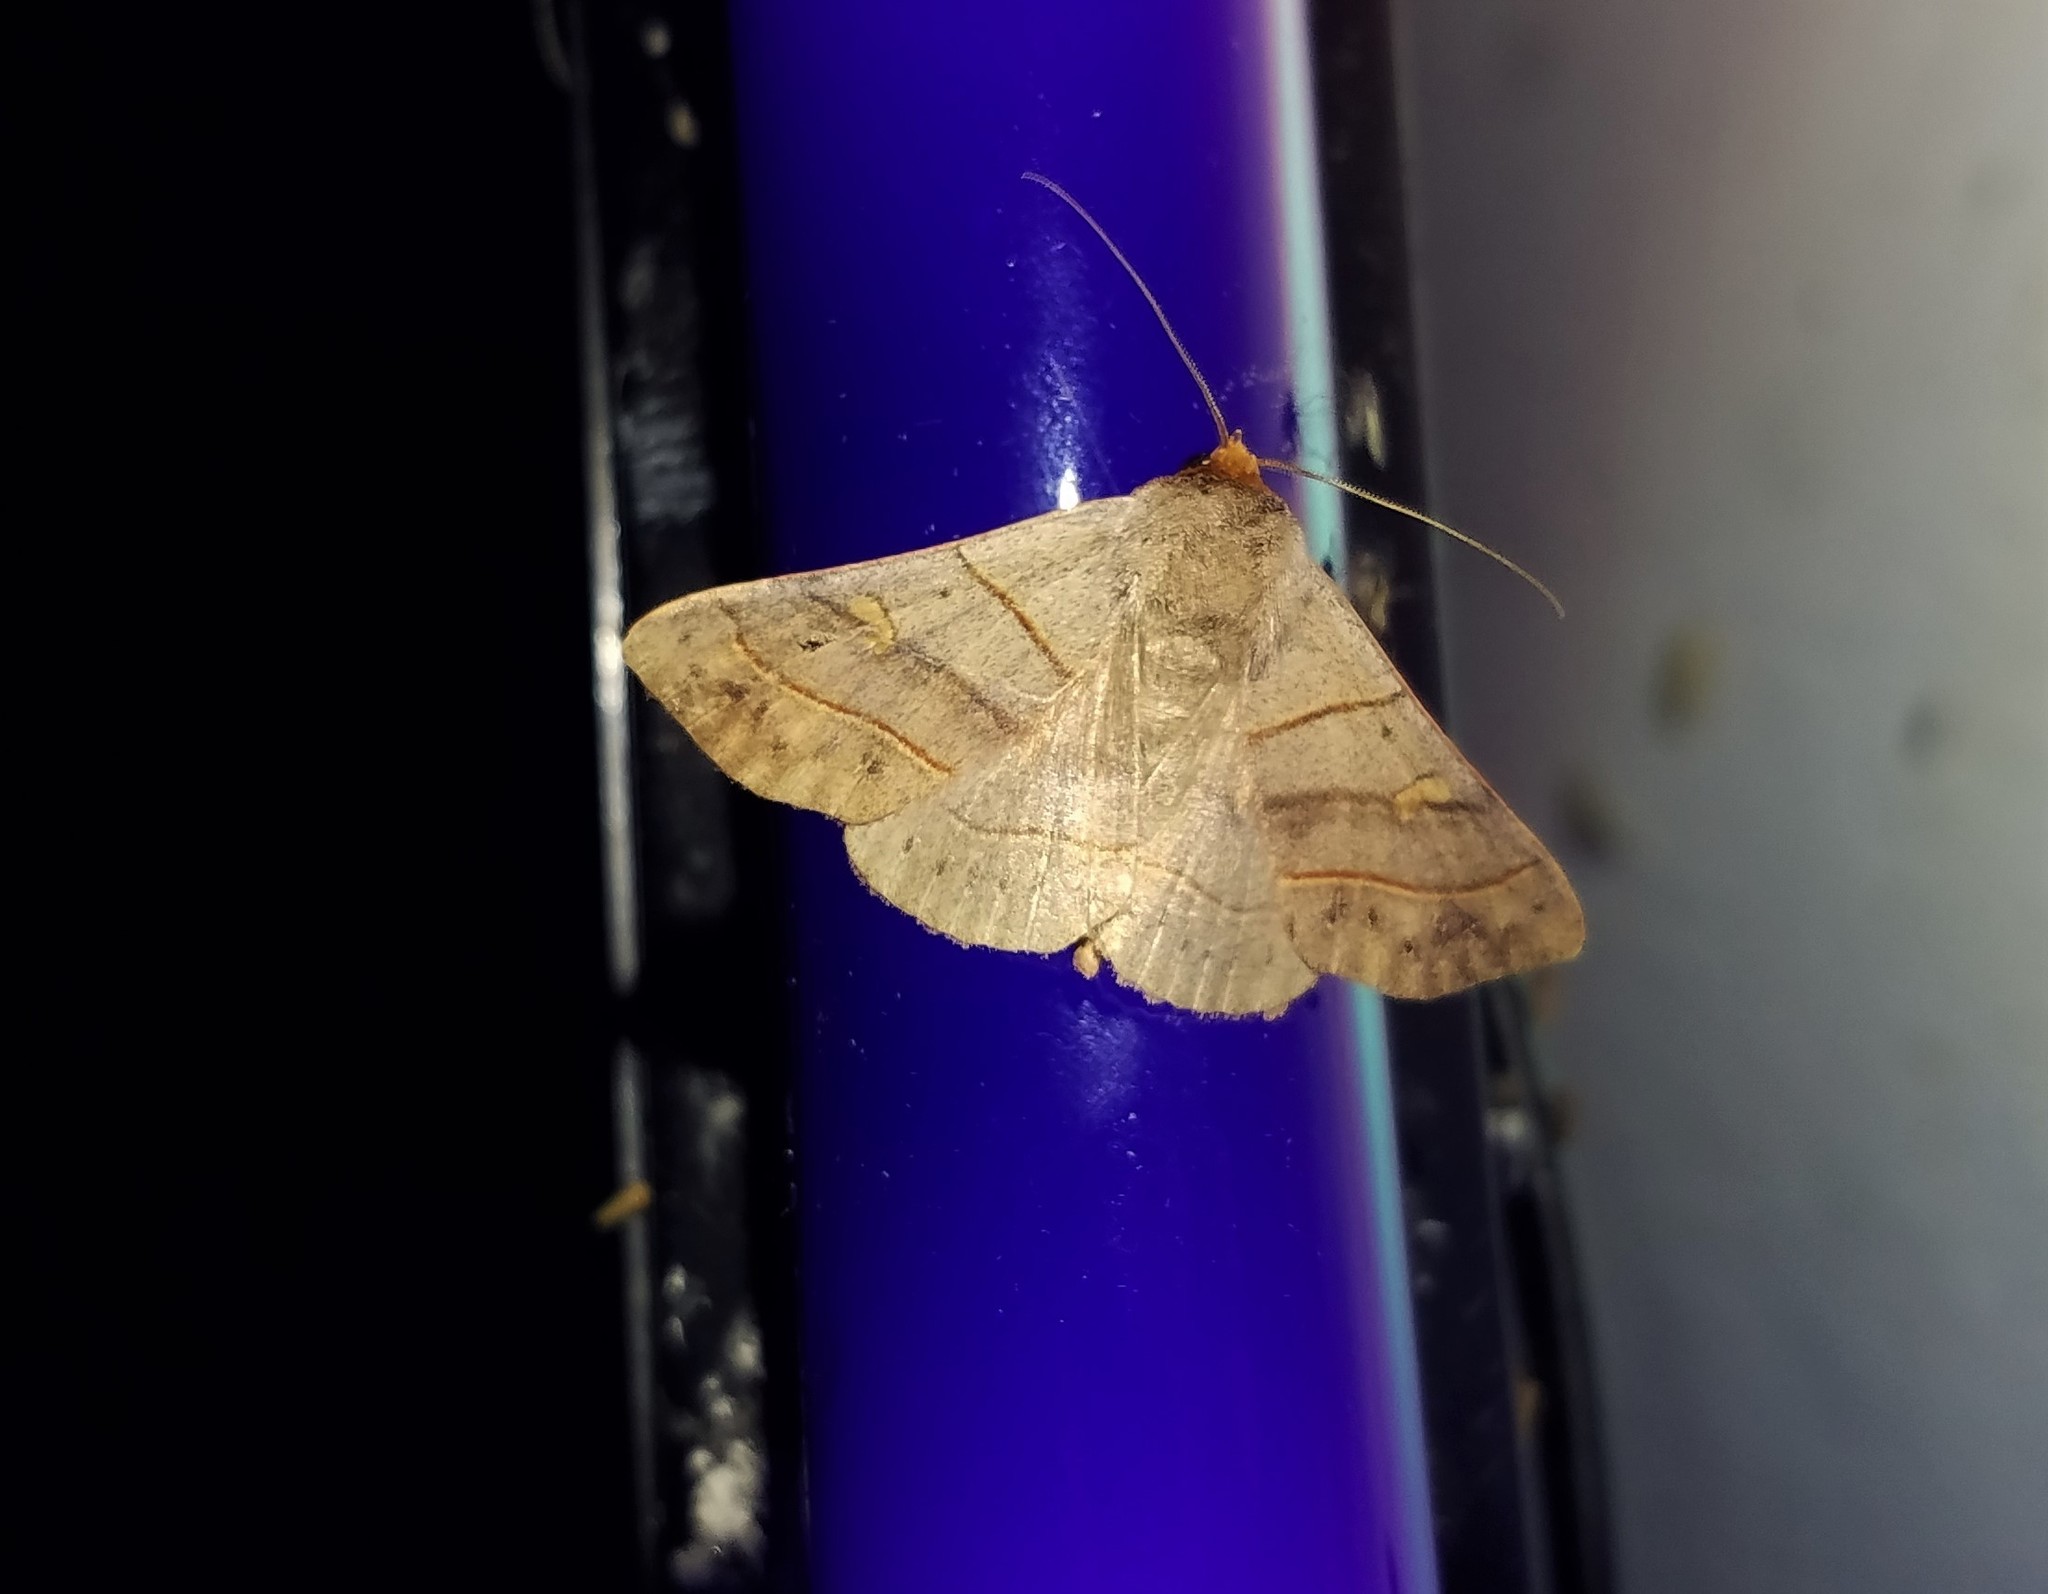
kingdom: Animalia
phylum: Arthropoda
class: Insecta
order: Lepidoptera
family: Erebidae
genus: Panopoda
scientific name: Panopoda rufimargo
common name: Red-lined panopoda moth
